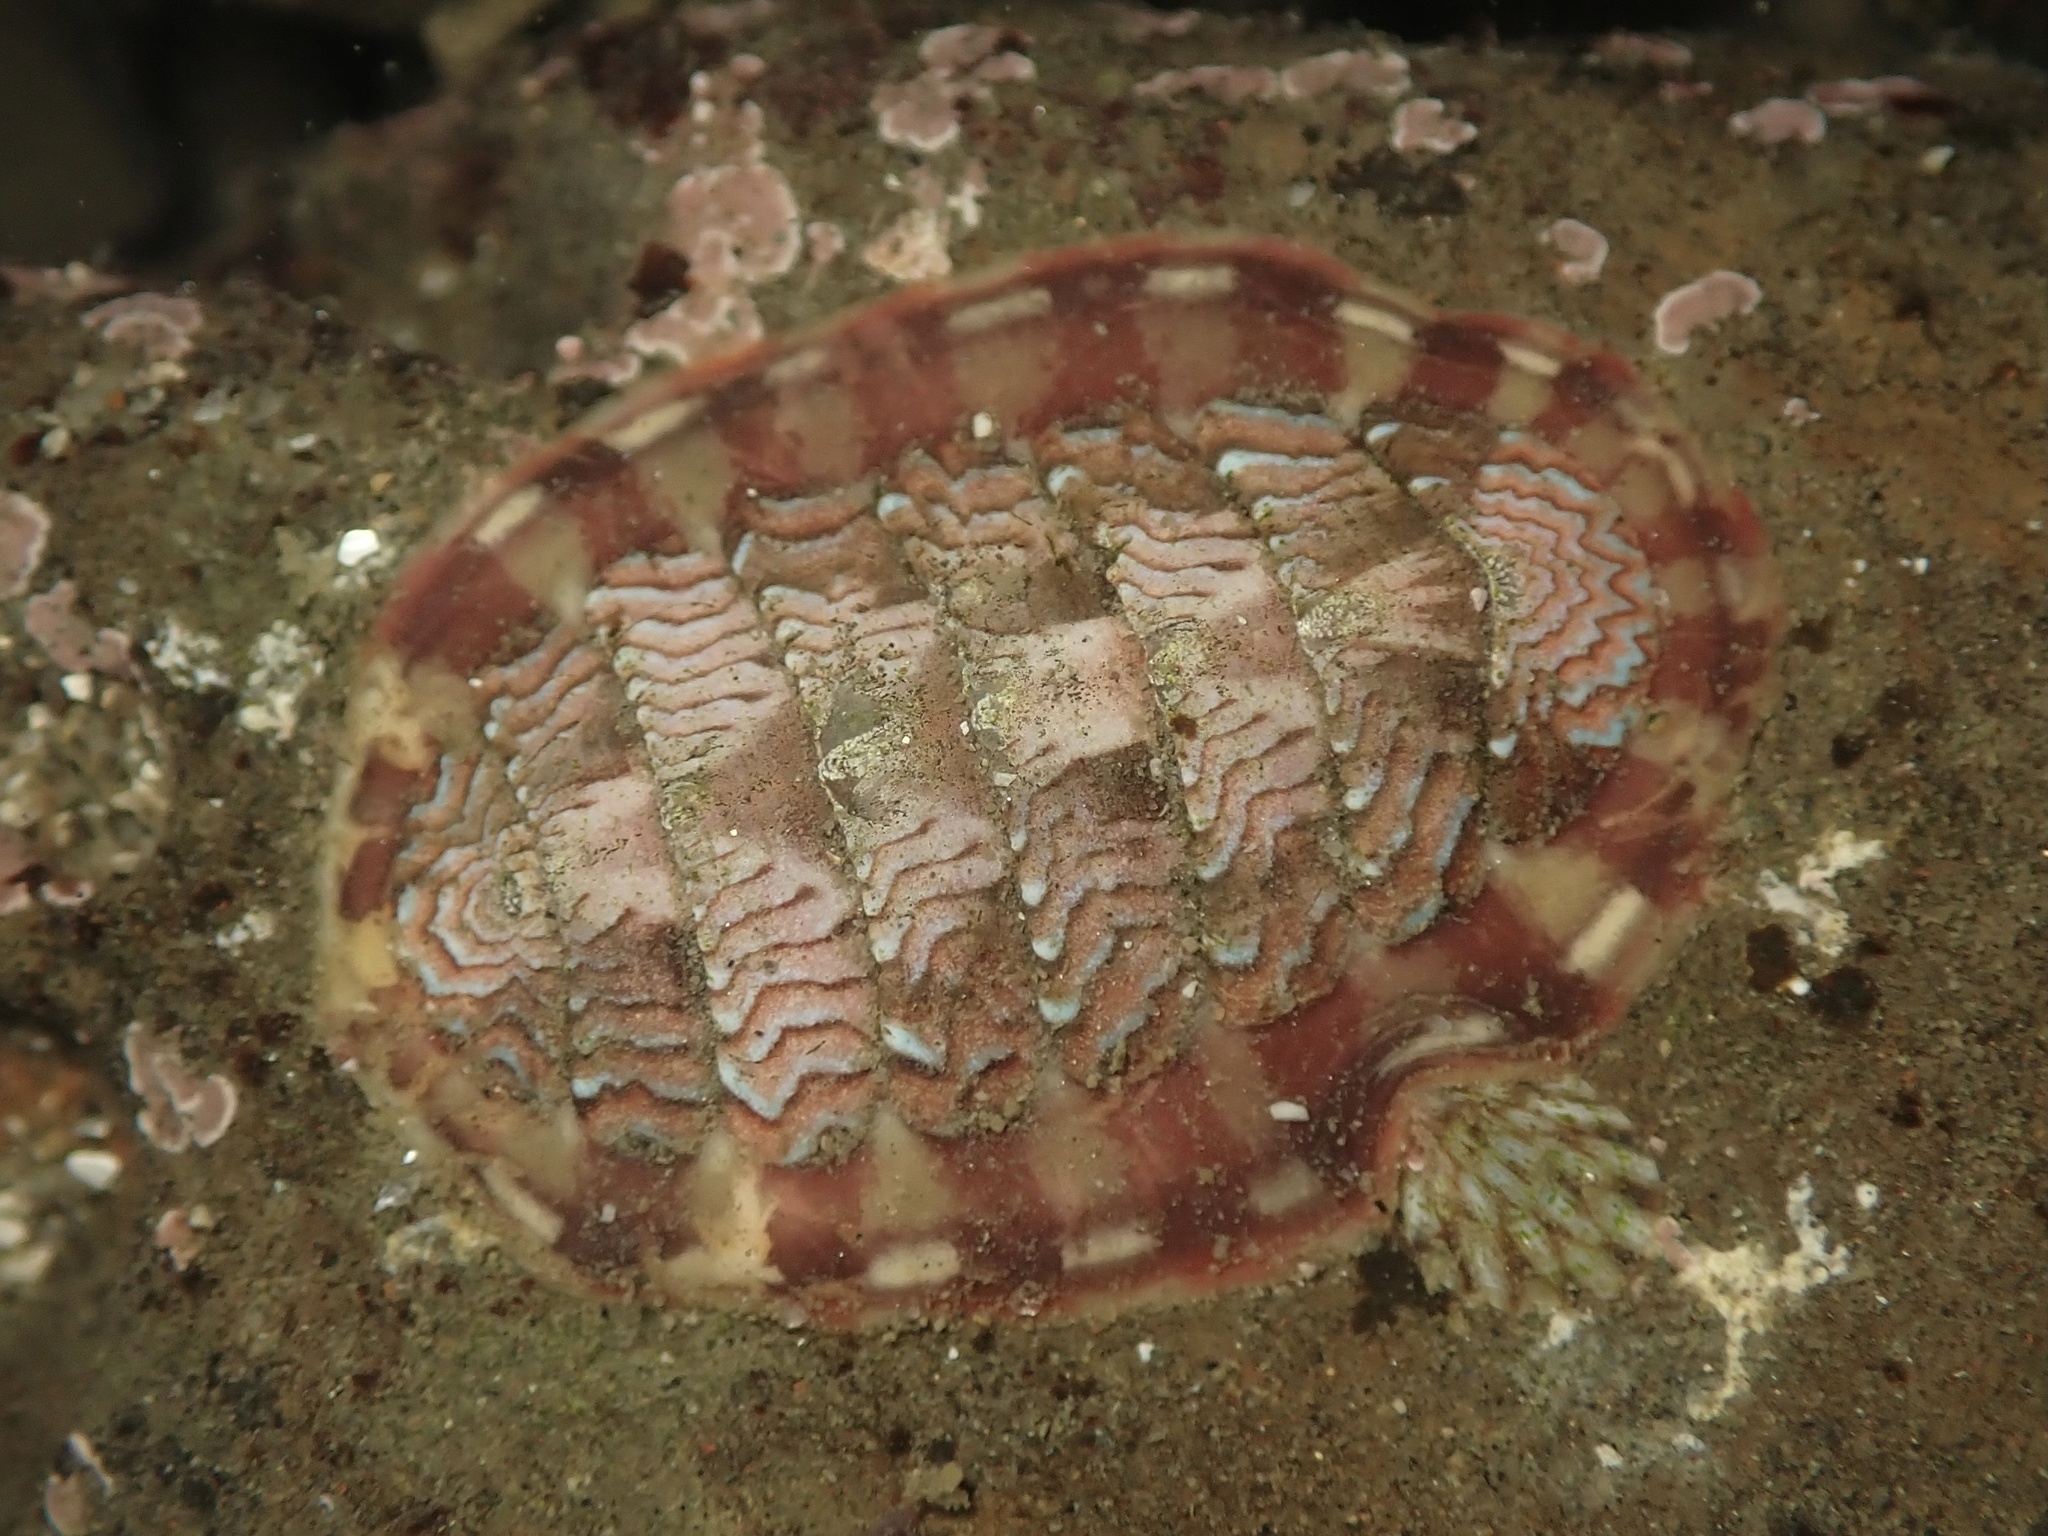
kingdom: Animalia
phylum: Mollusca
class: Polyplacophora
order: Chitonida
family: Tonicellidae
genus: Tonicella
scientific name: Tonicella lokii
